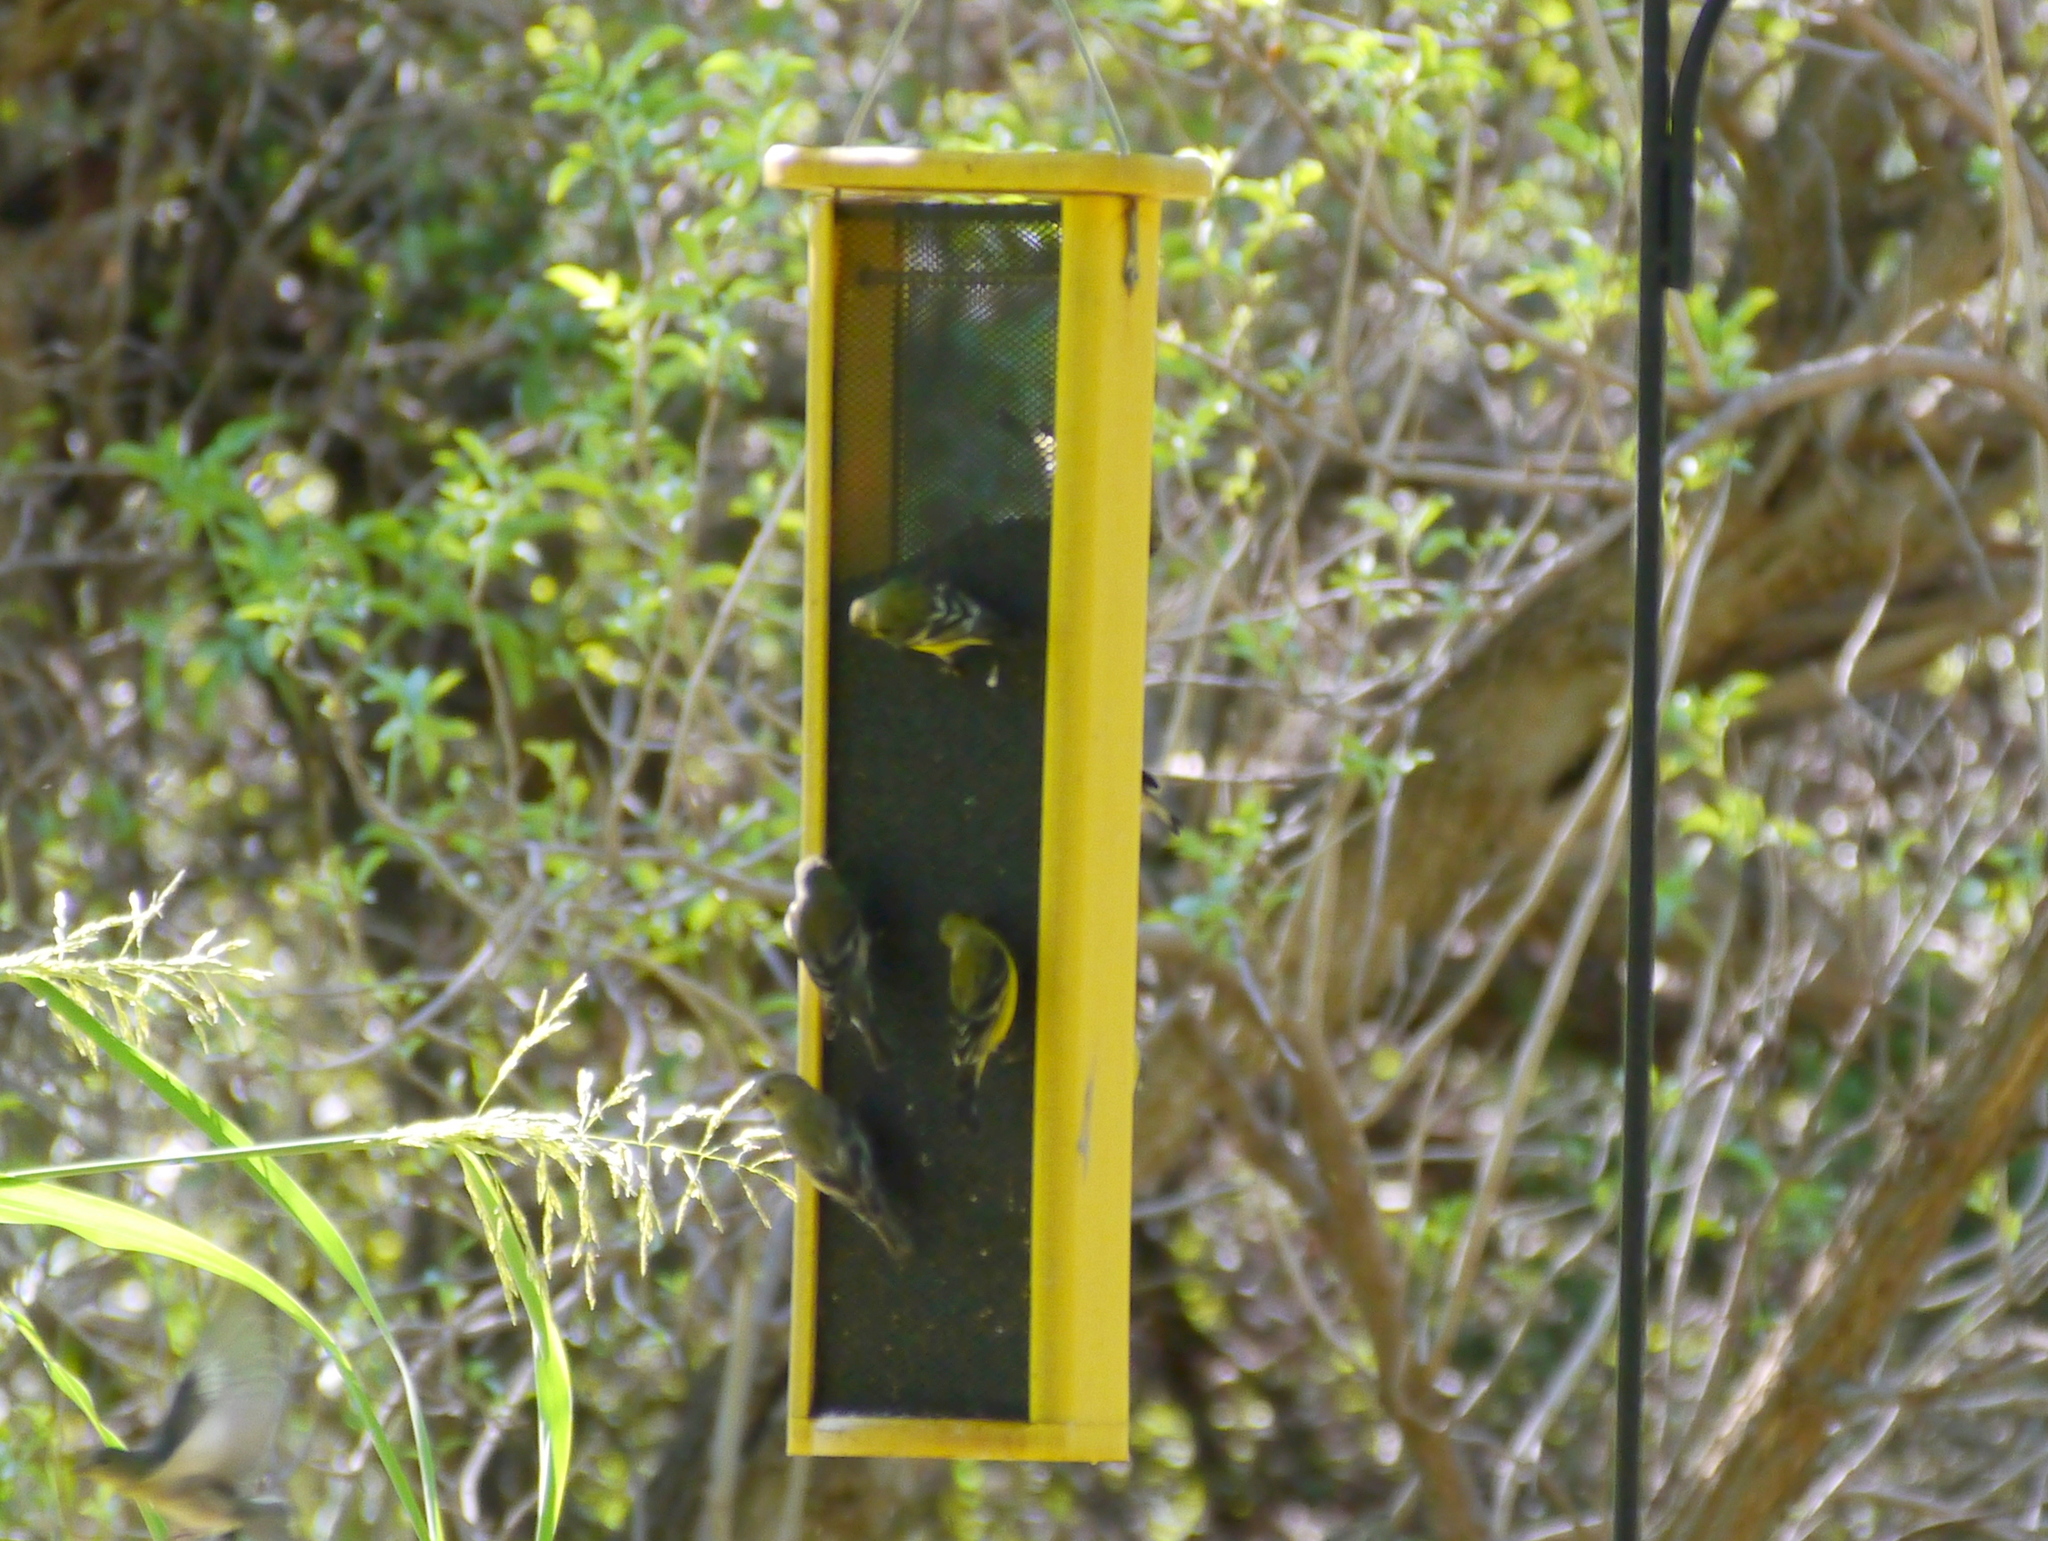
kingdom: Animalia
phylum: Chordata
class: Aves
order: Passeriformes
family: Fringillidae
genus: Spinus
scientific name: Spinus psaltria
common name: Lesser goldfinch
